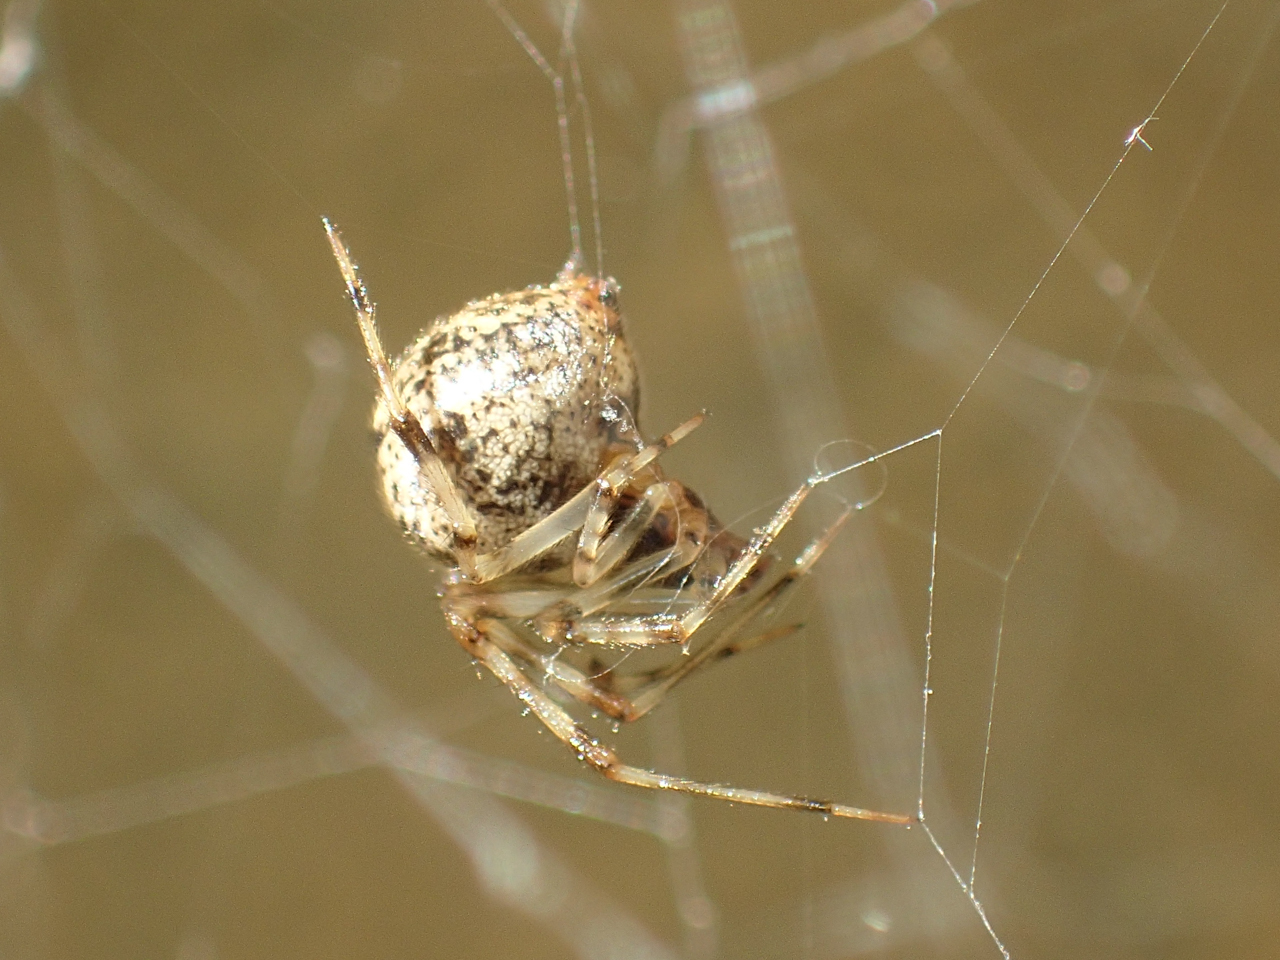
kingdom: Animalia
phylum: Arthropoda
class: Arachnida
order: Araneae
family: Theridiidae
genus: Parasteatoda
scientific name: Parasteatoda tepidariorum
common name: Common house spider
